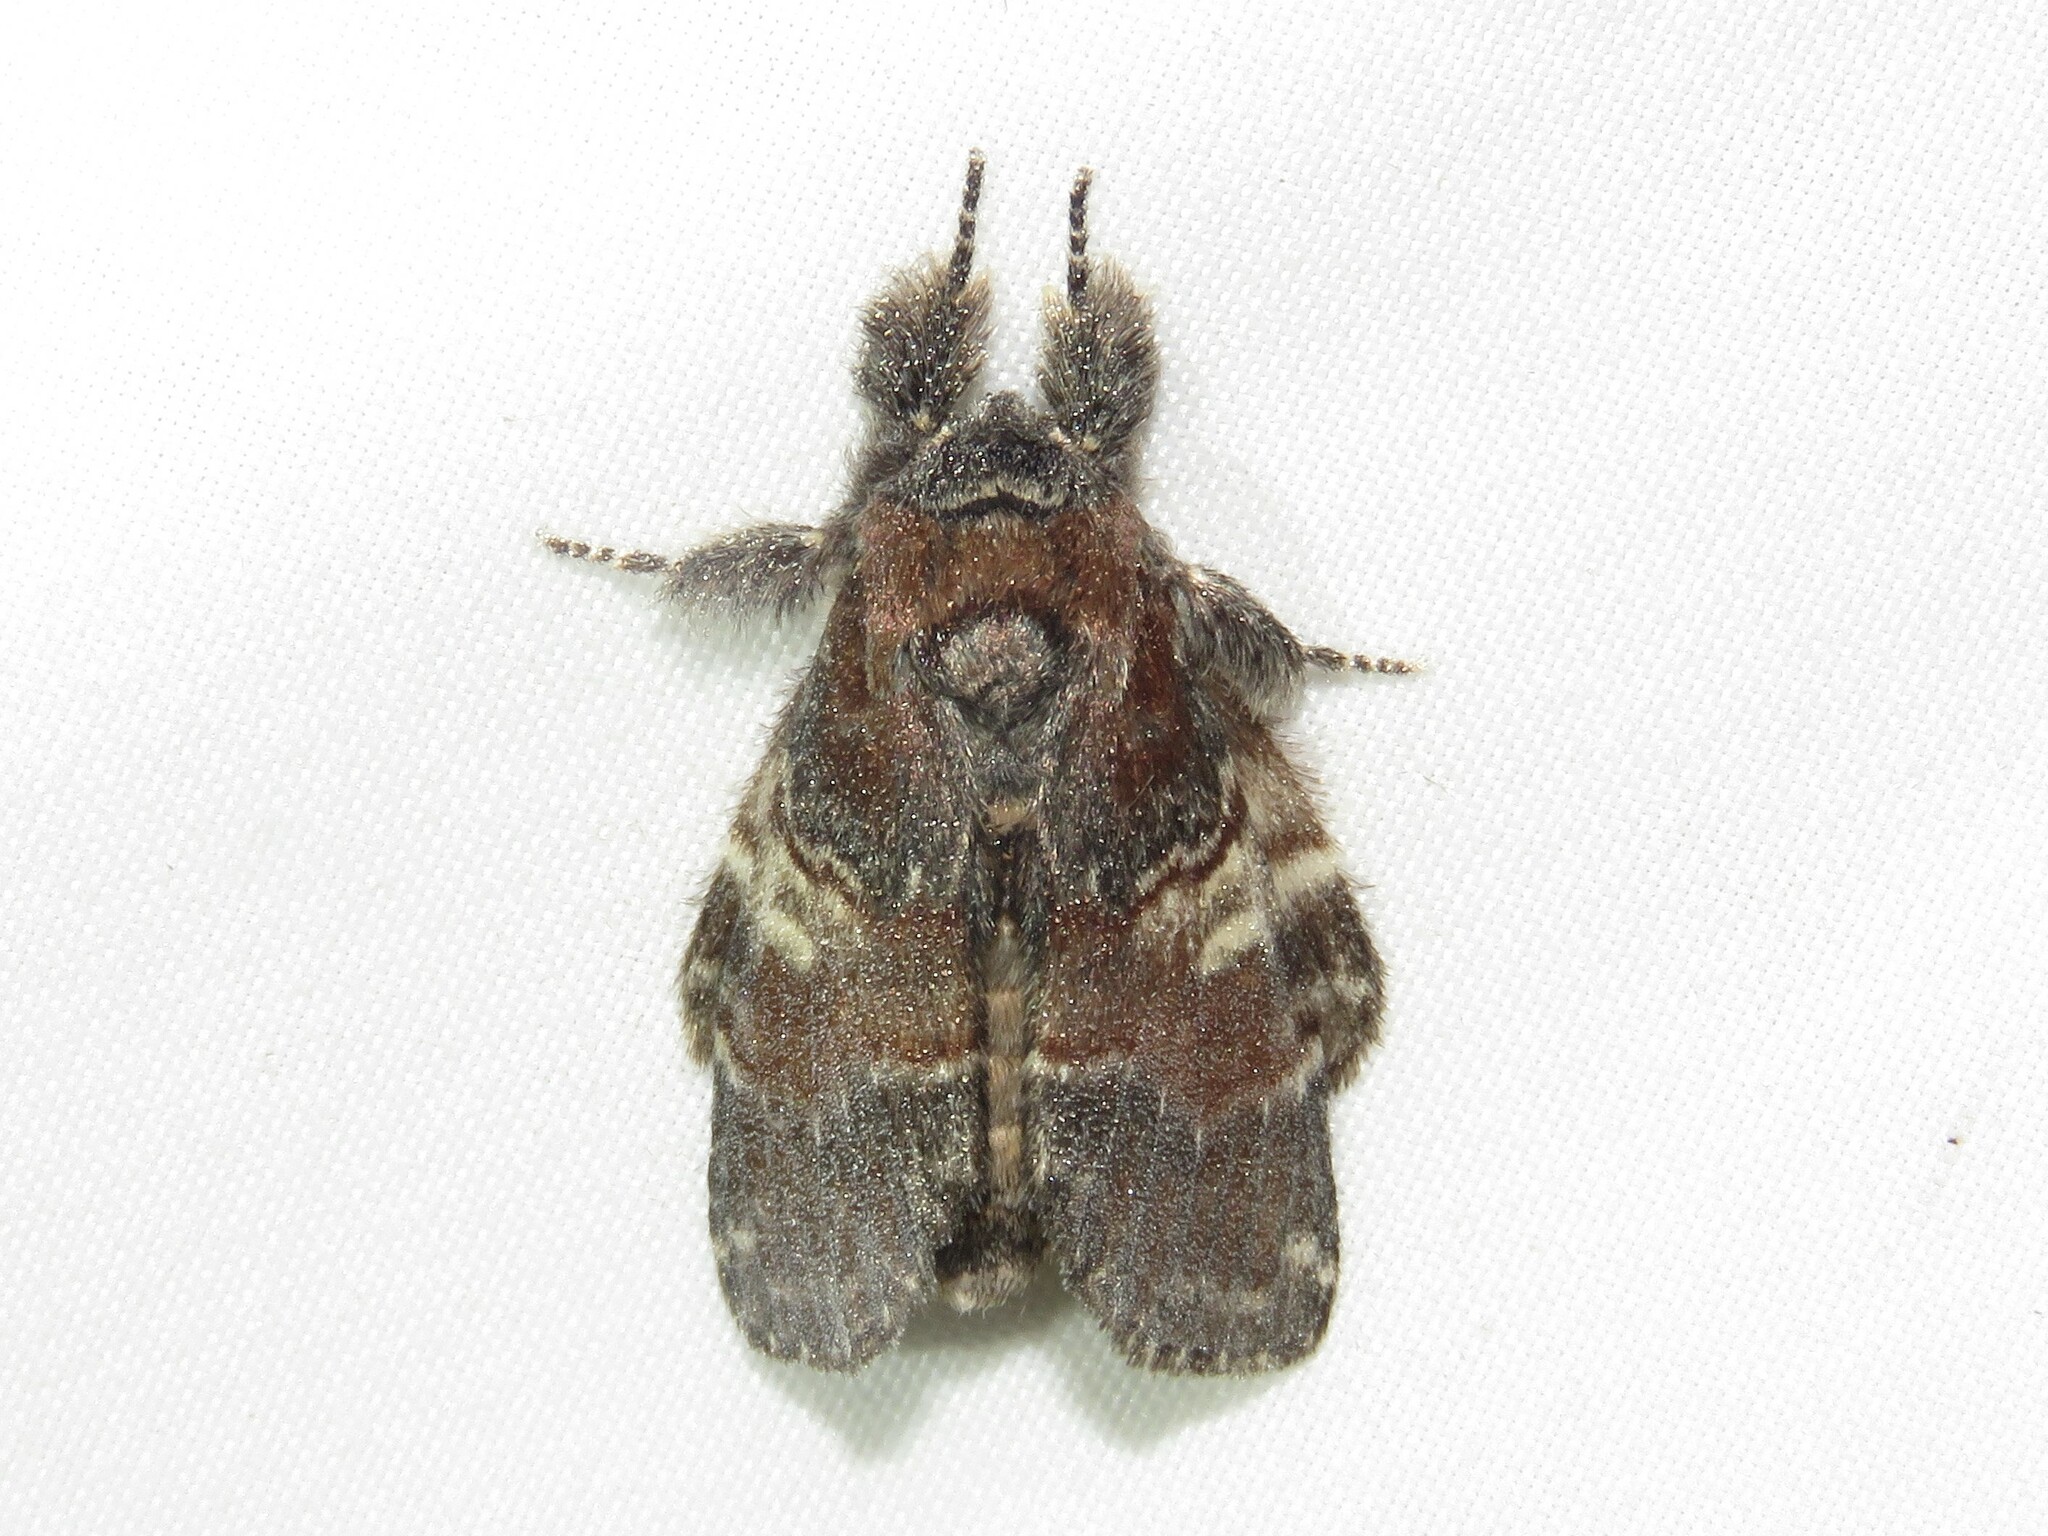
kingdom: Animalia
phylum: Arthropoda
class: Insecta
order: Lepidoptera
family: Notodontidae
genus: Peridea
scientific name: Peridea ferruginea
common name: Chocolate prominent
